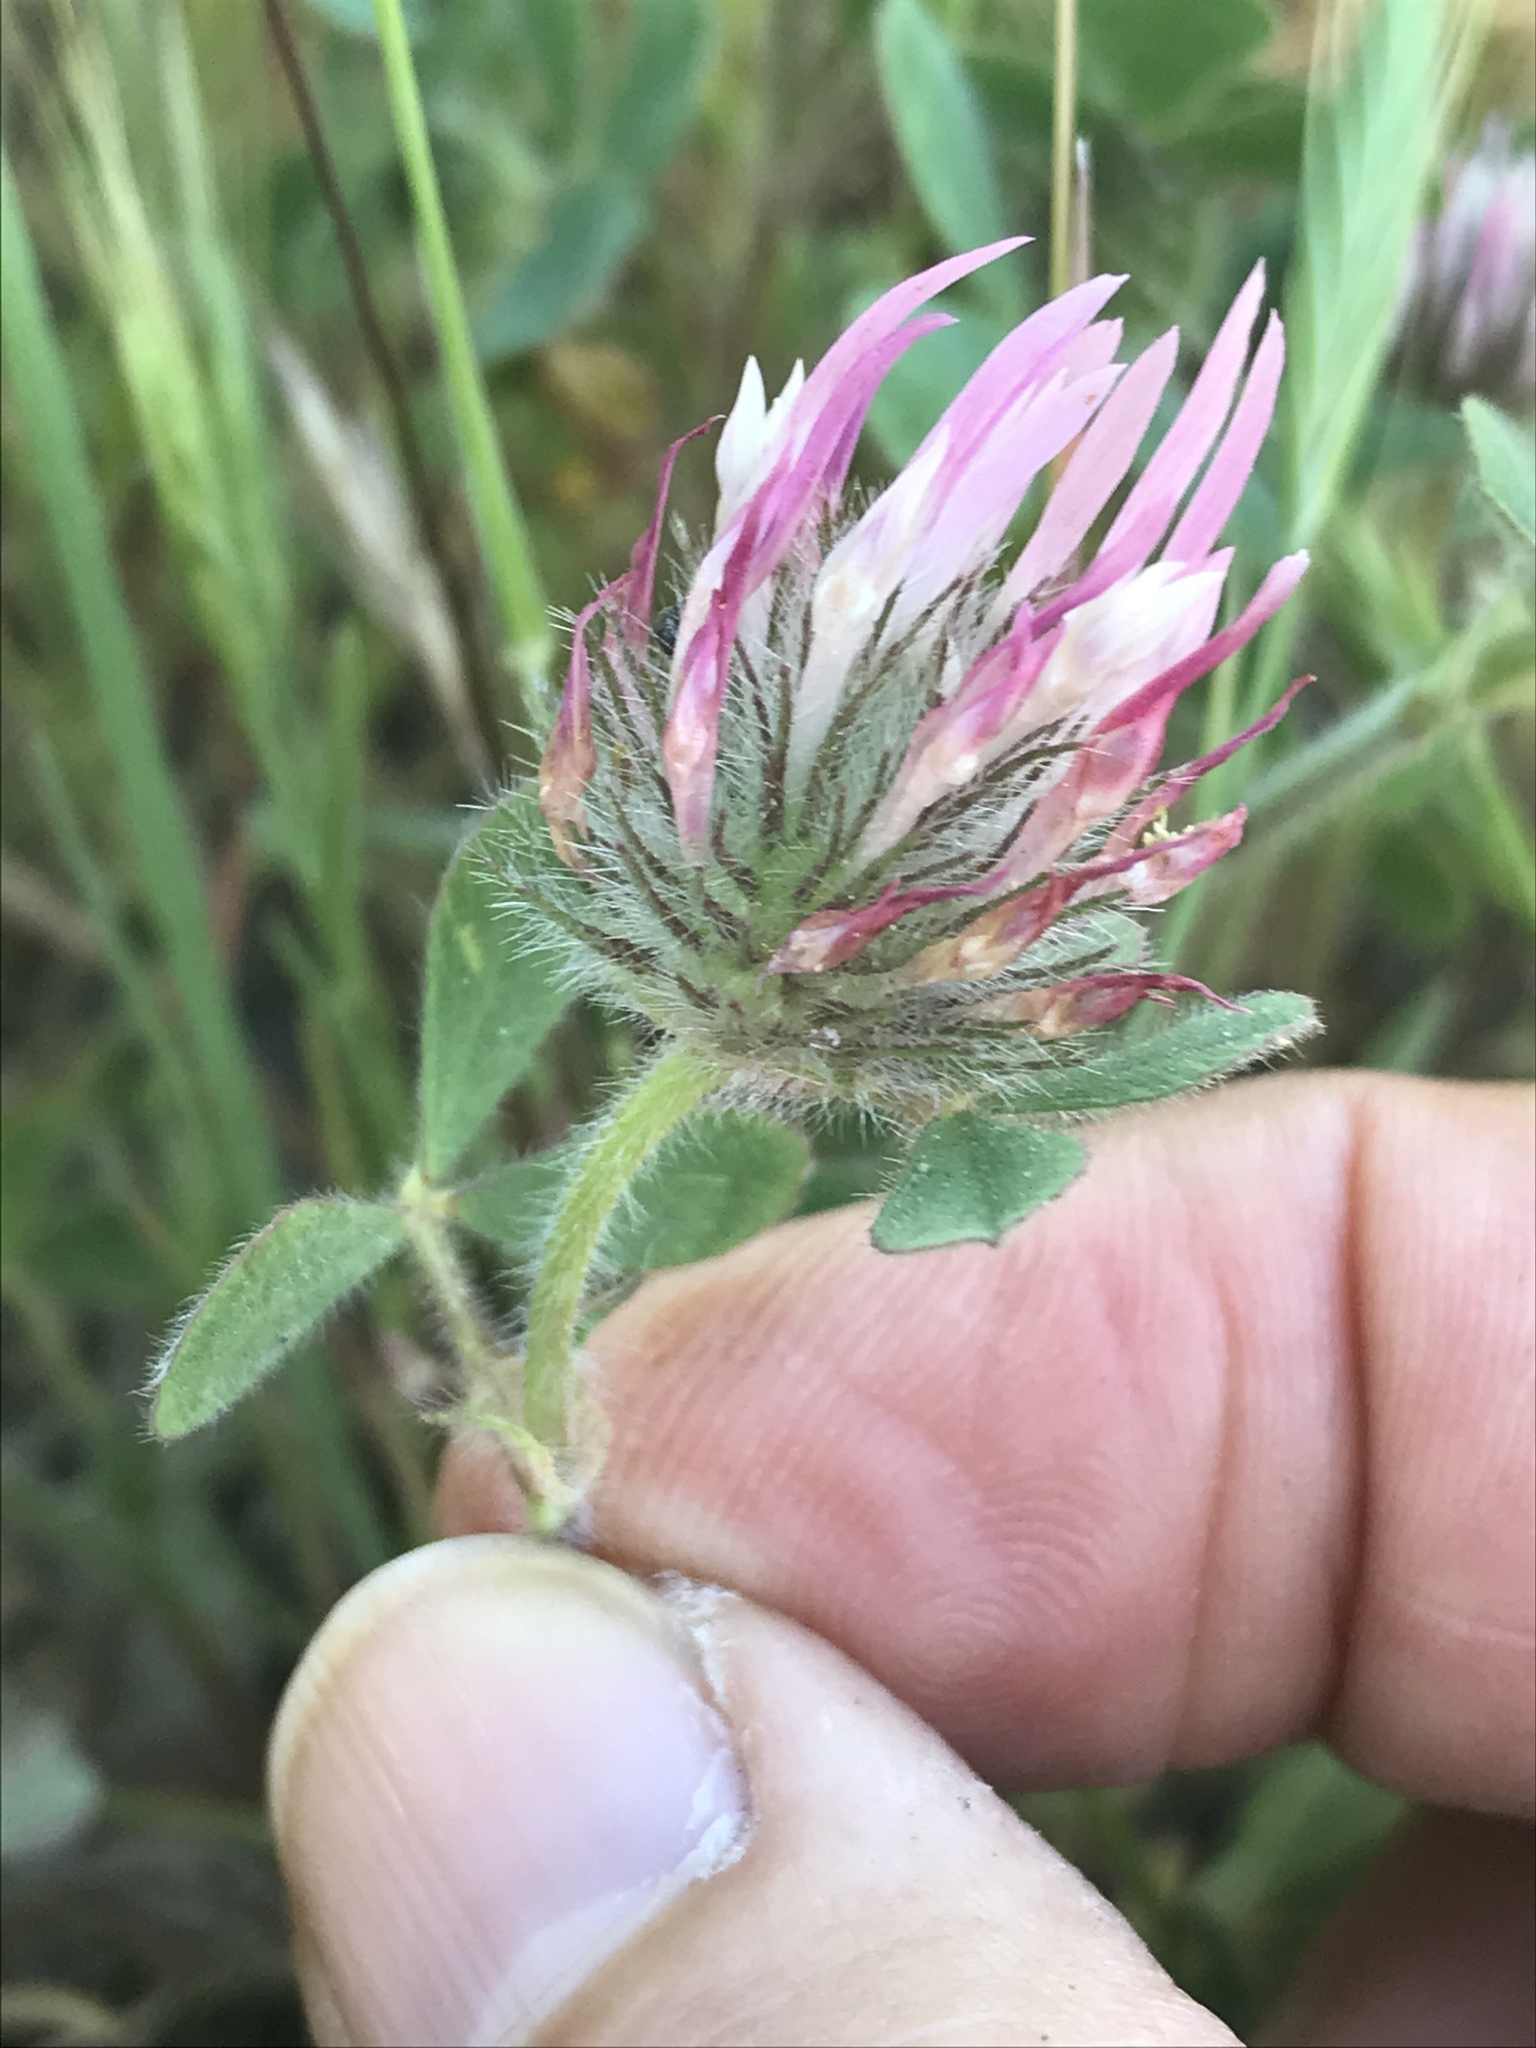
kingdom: Plantae
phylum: Tracheophyta
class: Magnoliopsida
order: Fabales
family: Fabaceae
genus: Trifolium
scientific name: Trifolium hirtum
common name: Rose clover
